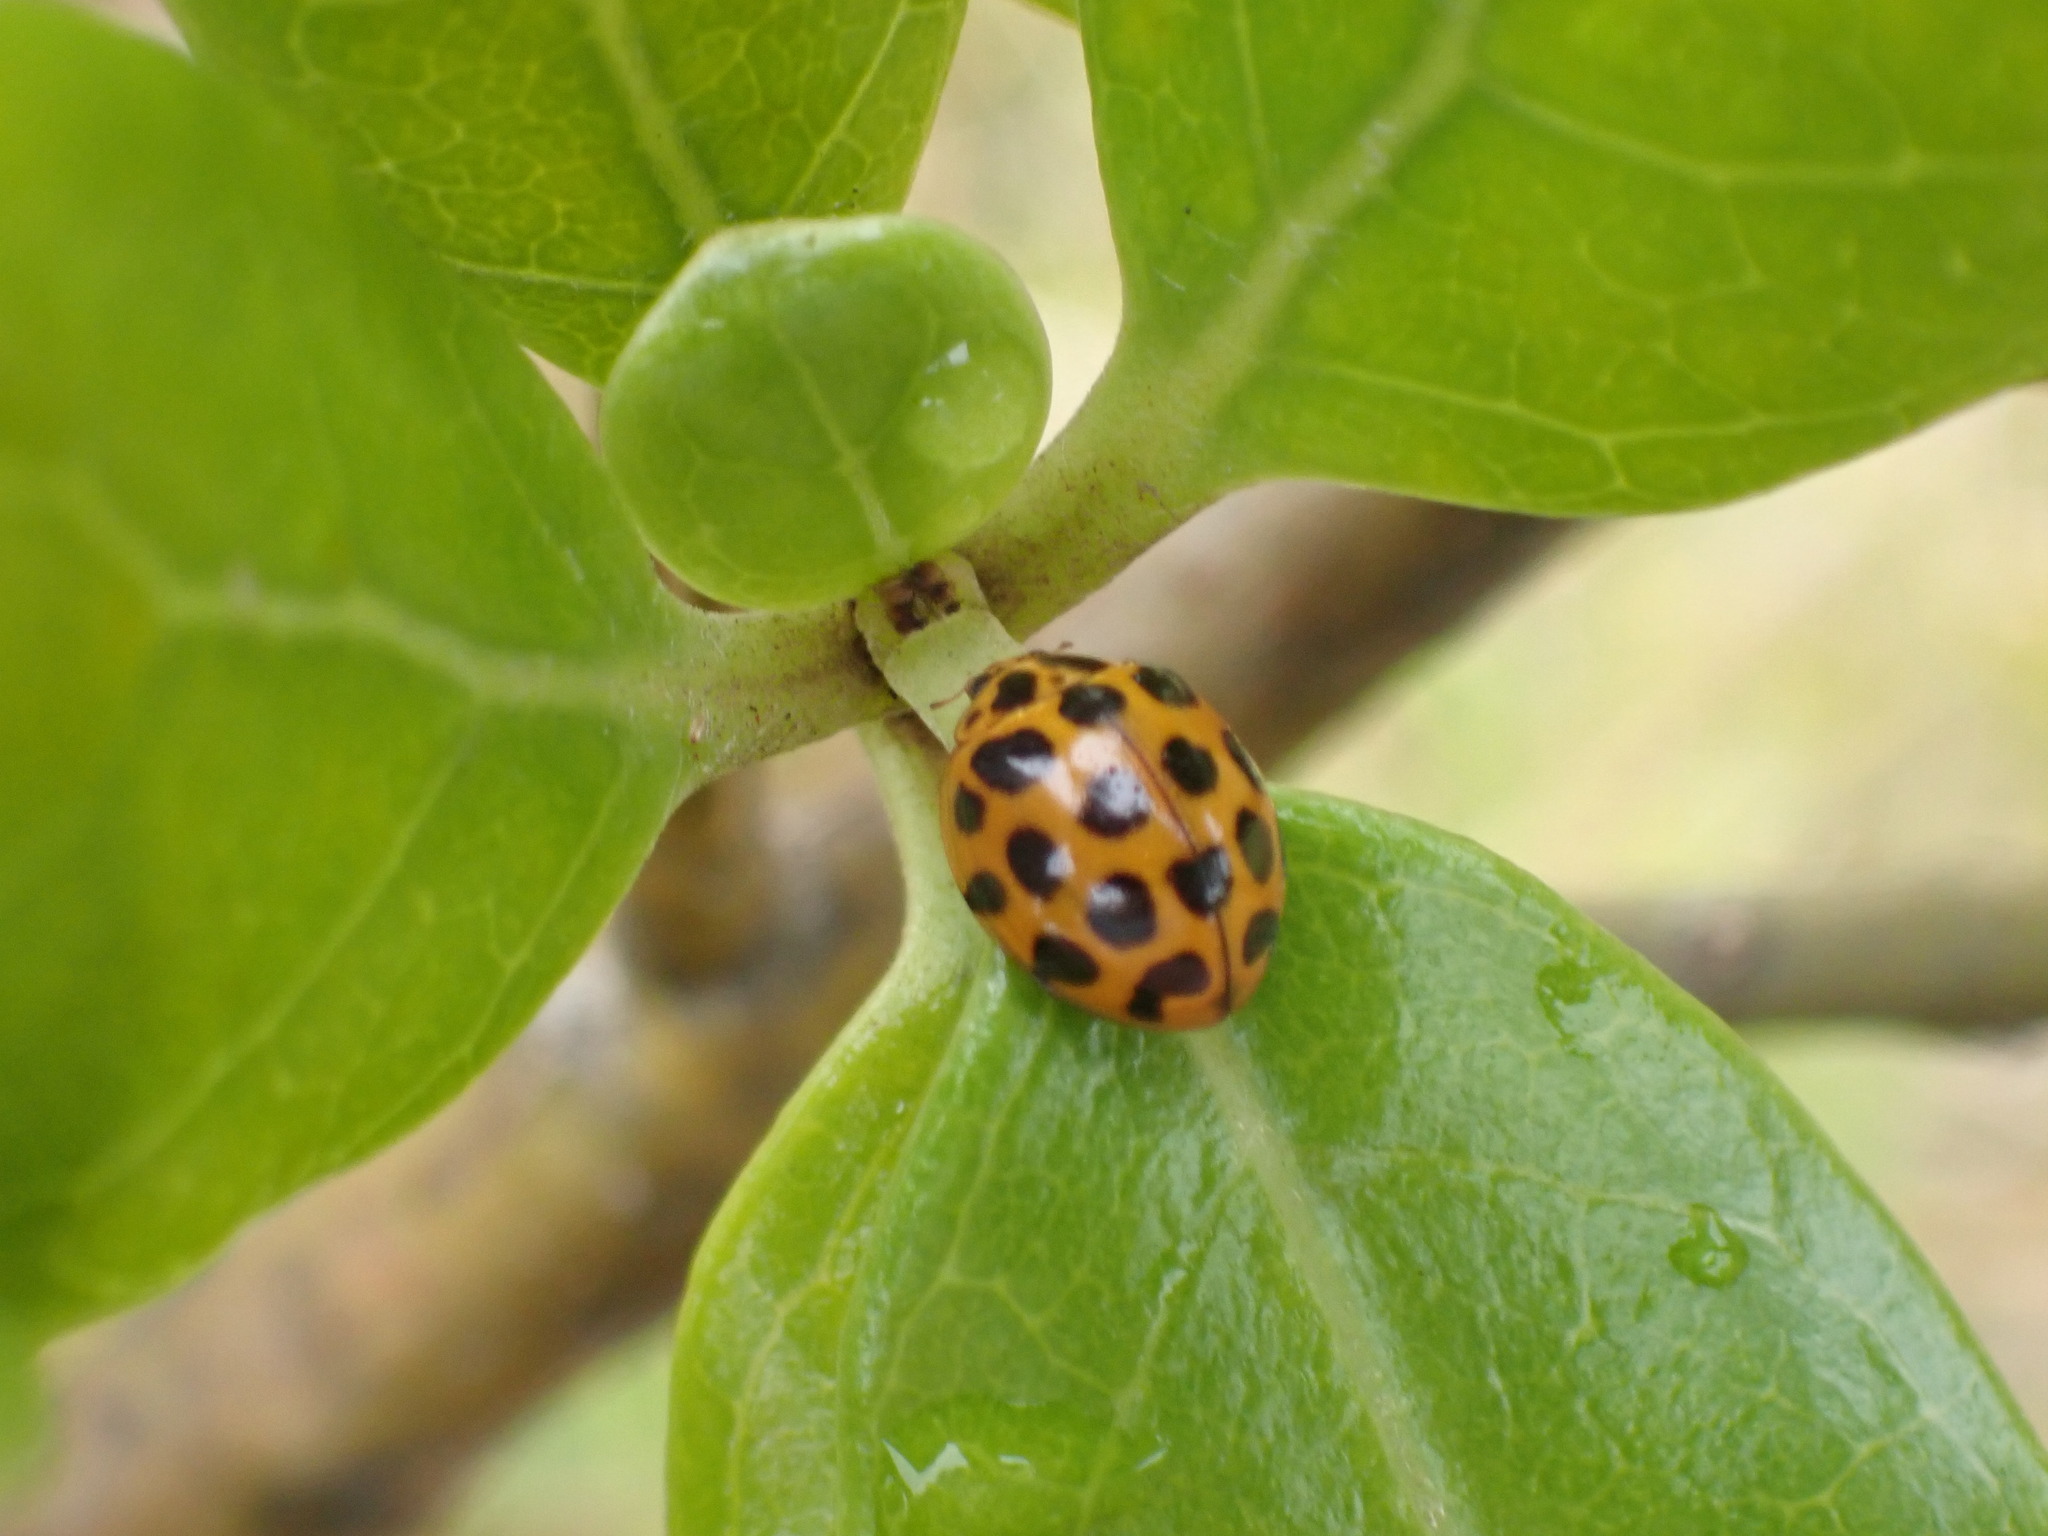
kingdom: Animalia
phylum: Arthropoda
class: Insecta
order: Coleoptera
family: Coccinellidae
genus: Harmonia
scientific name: Harmonia conformis
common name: Common spotted ladybird beetle
